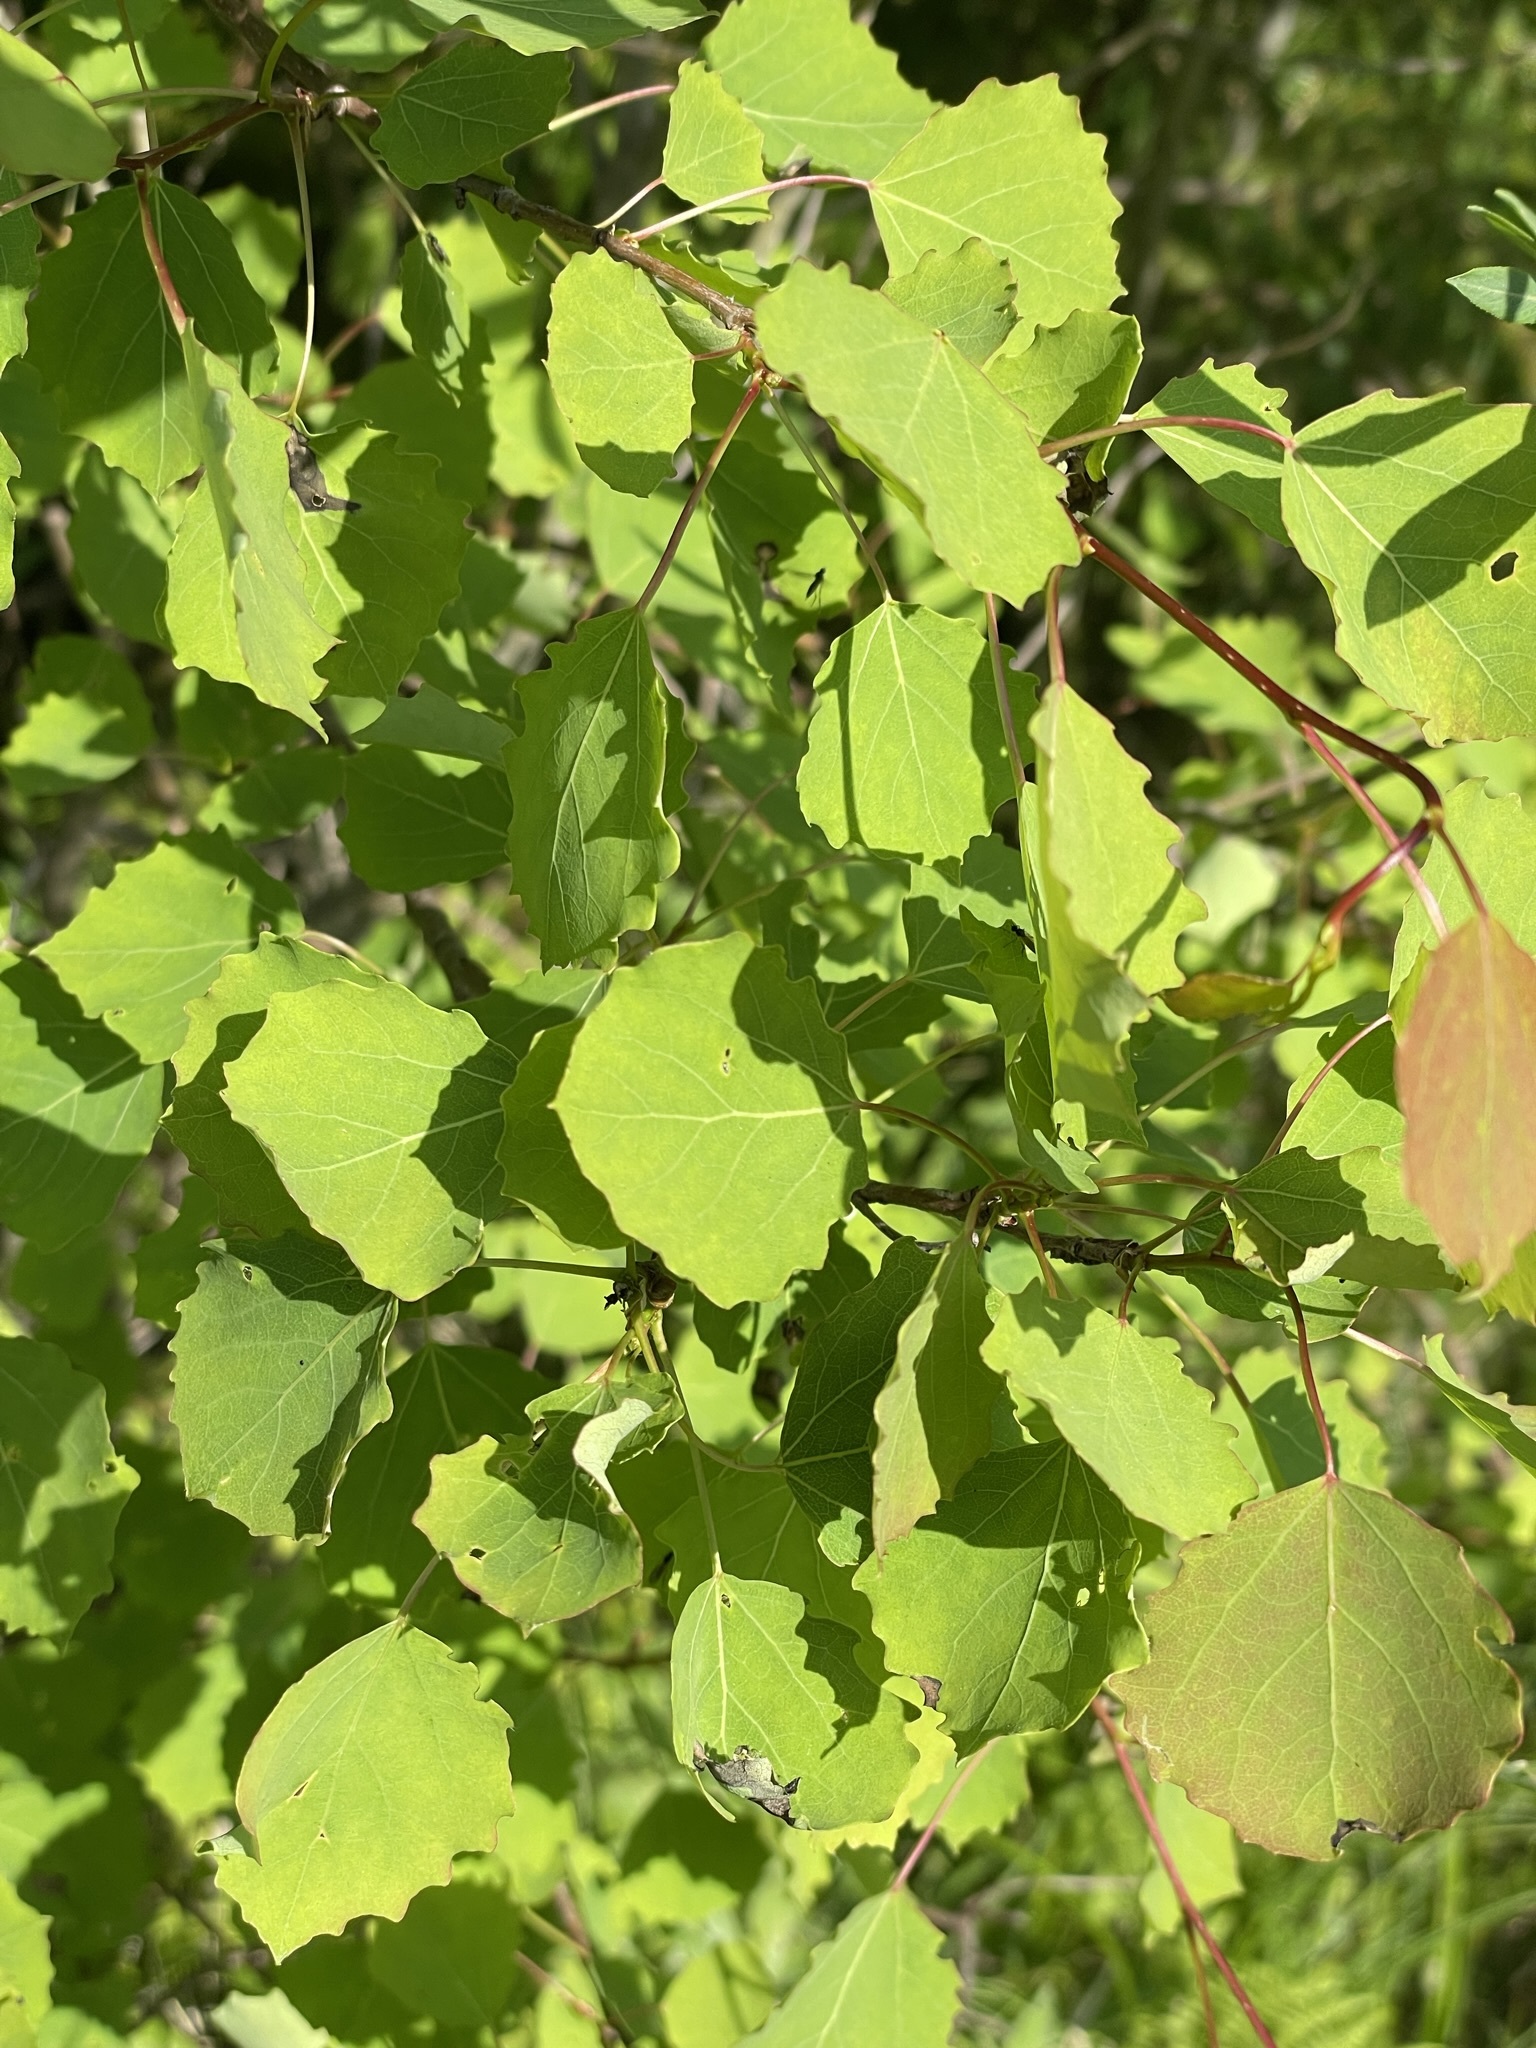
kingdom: Plantae
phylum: Tracheophyta
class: Magnoliopsida
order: Malpighiales
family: Salicaceae
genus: Populus
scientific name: Populus tremula
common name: European aspen
